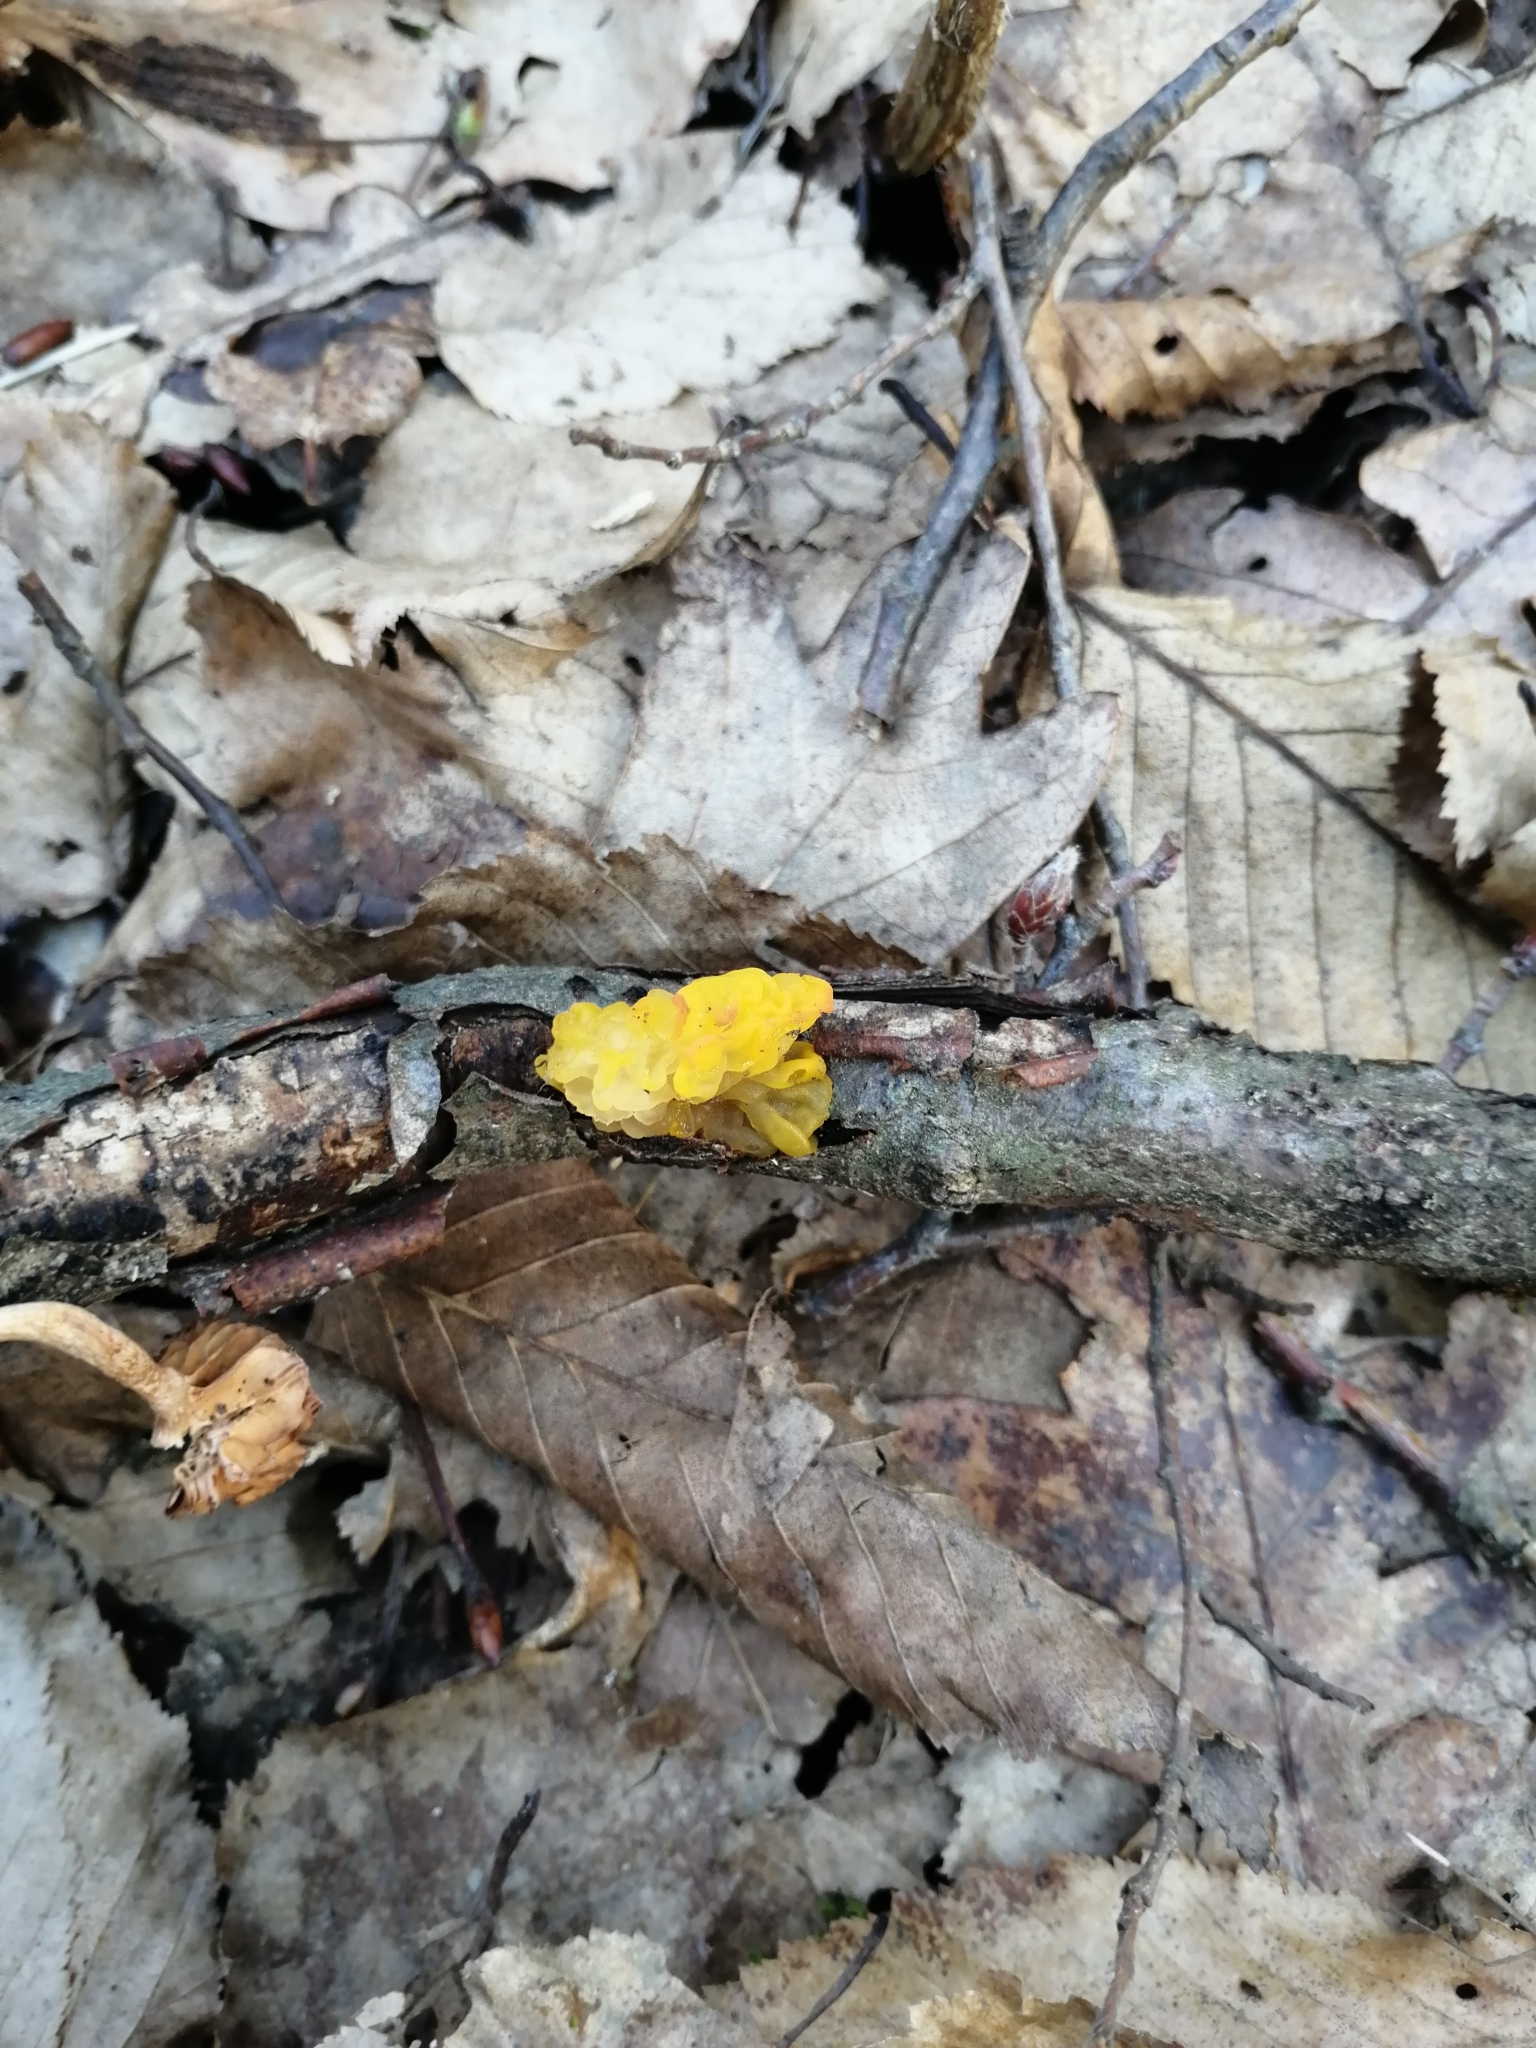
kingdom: Fungi
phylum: Basidiomycota
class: Tremellomycetes
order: Tremellales
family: Tremellaceae
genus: Tremella
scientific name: Tremella mesenterica
